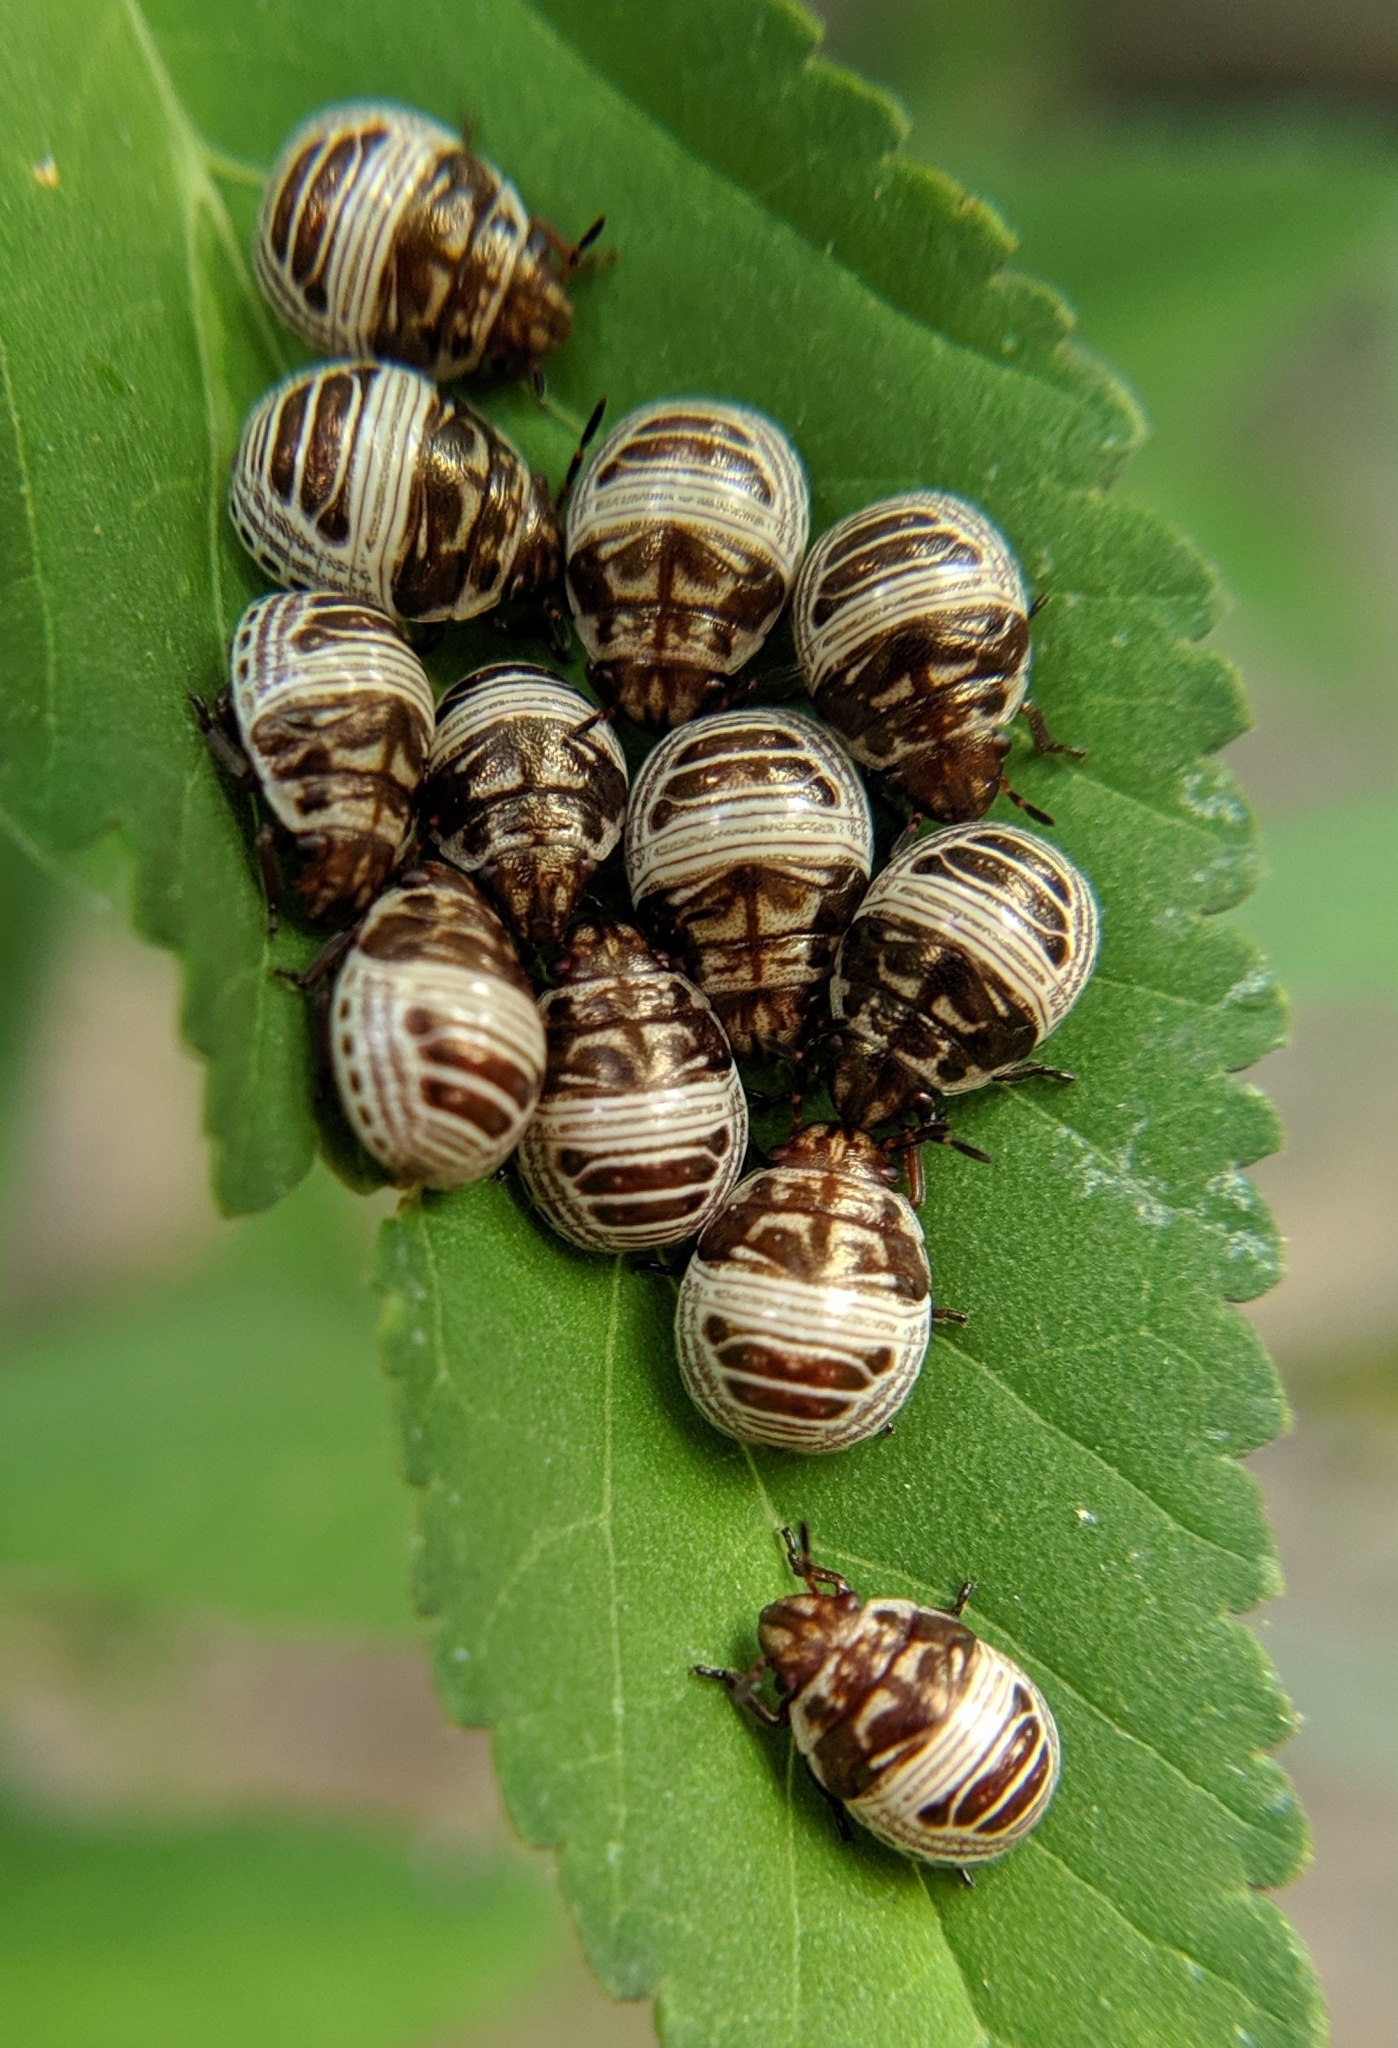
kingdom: Animalia
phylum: Arthropoda
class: Insecta
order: Hemiptera
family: Scutelleridae
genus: Orsilochides
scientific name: Orsilochides
